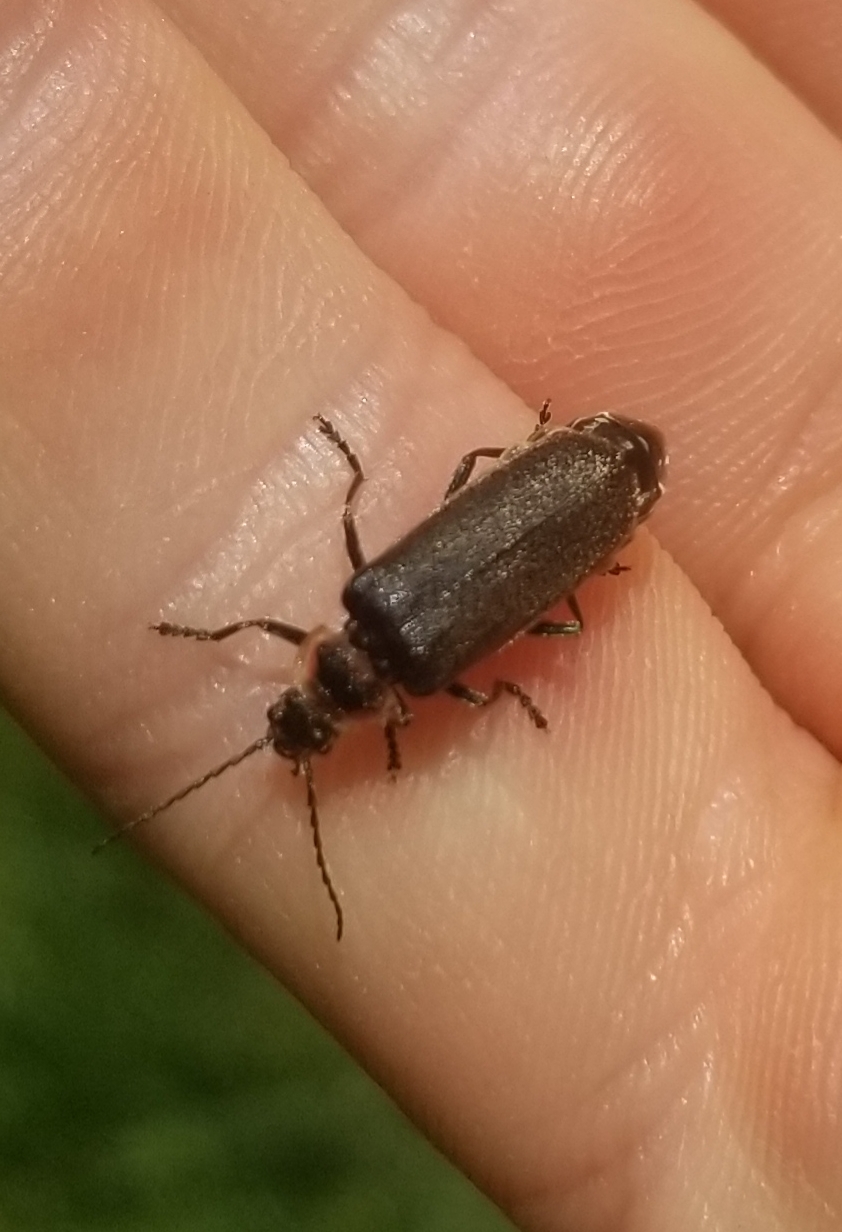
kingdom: Animalia
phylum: Arthropoda
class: Insecta
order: Coleoptera
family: Cantharidae
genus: Atalantycha
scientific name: Atalantycha dentigera
